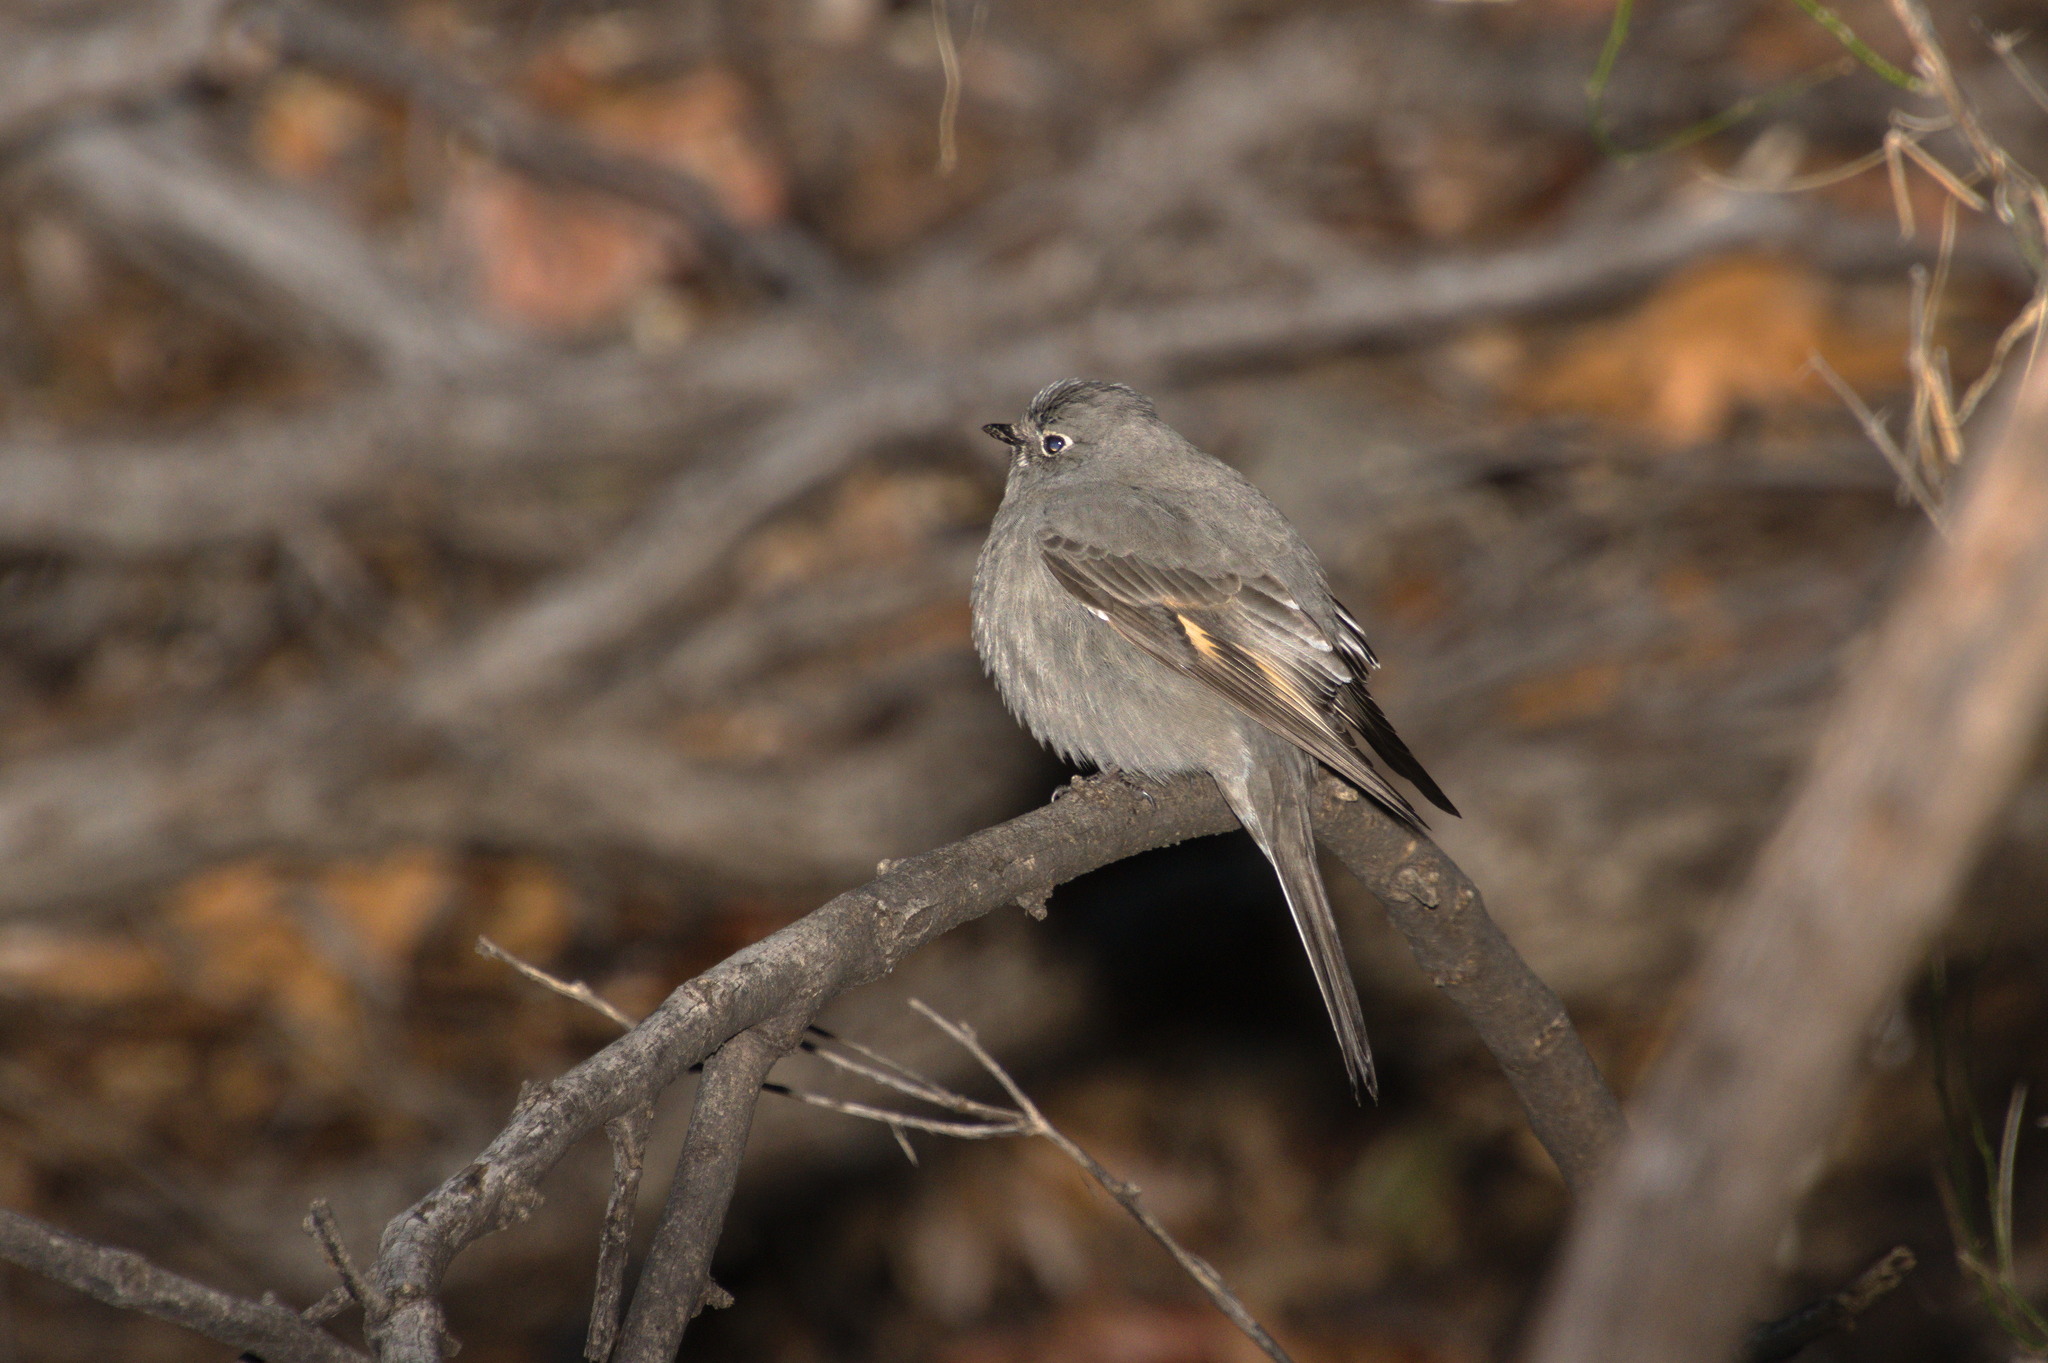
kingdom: Animalia
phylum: Chordata
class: Aves
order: Passeriformes
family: Turdidae
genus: Myadestes
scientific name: Myadestes townsendi
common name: Townsend's solitaire
